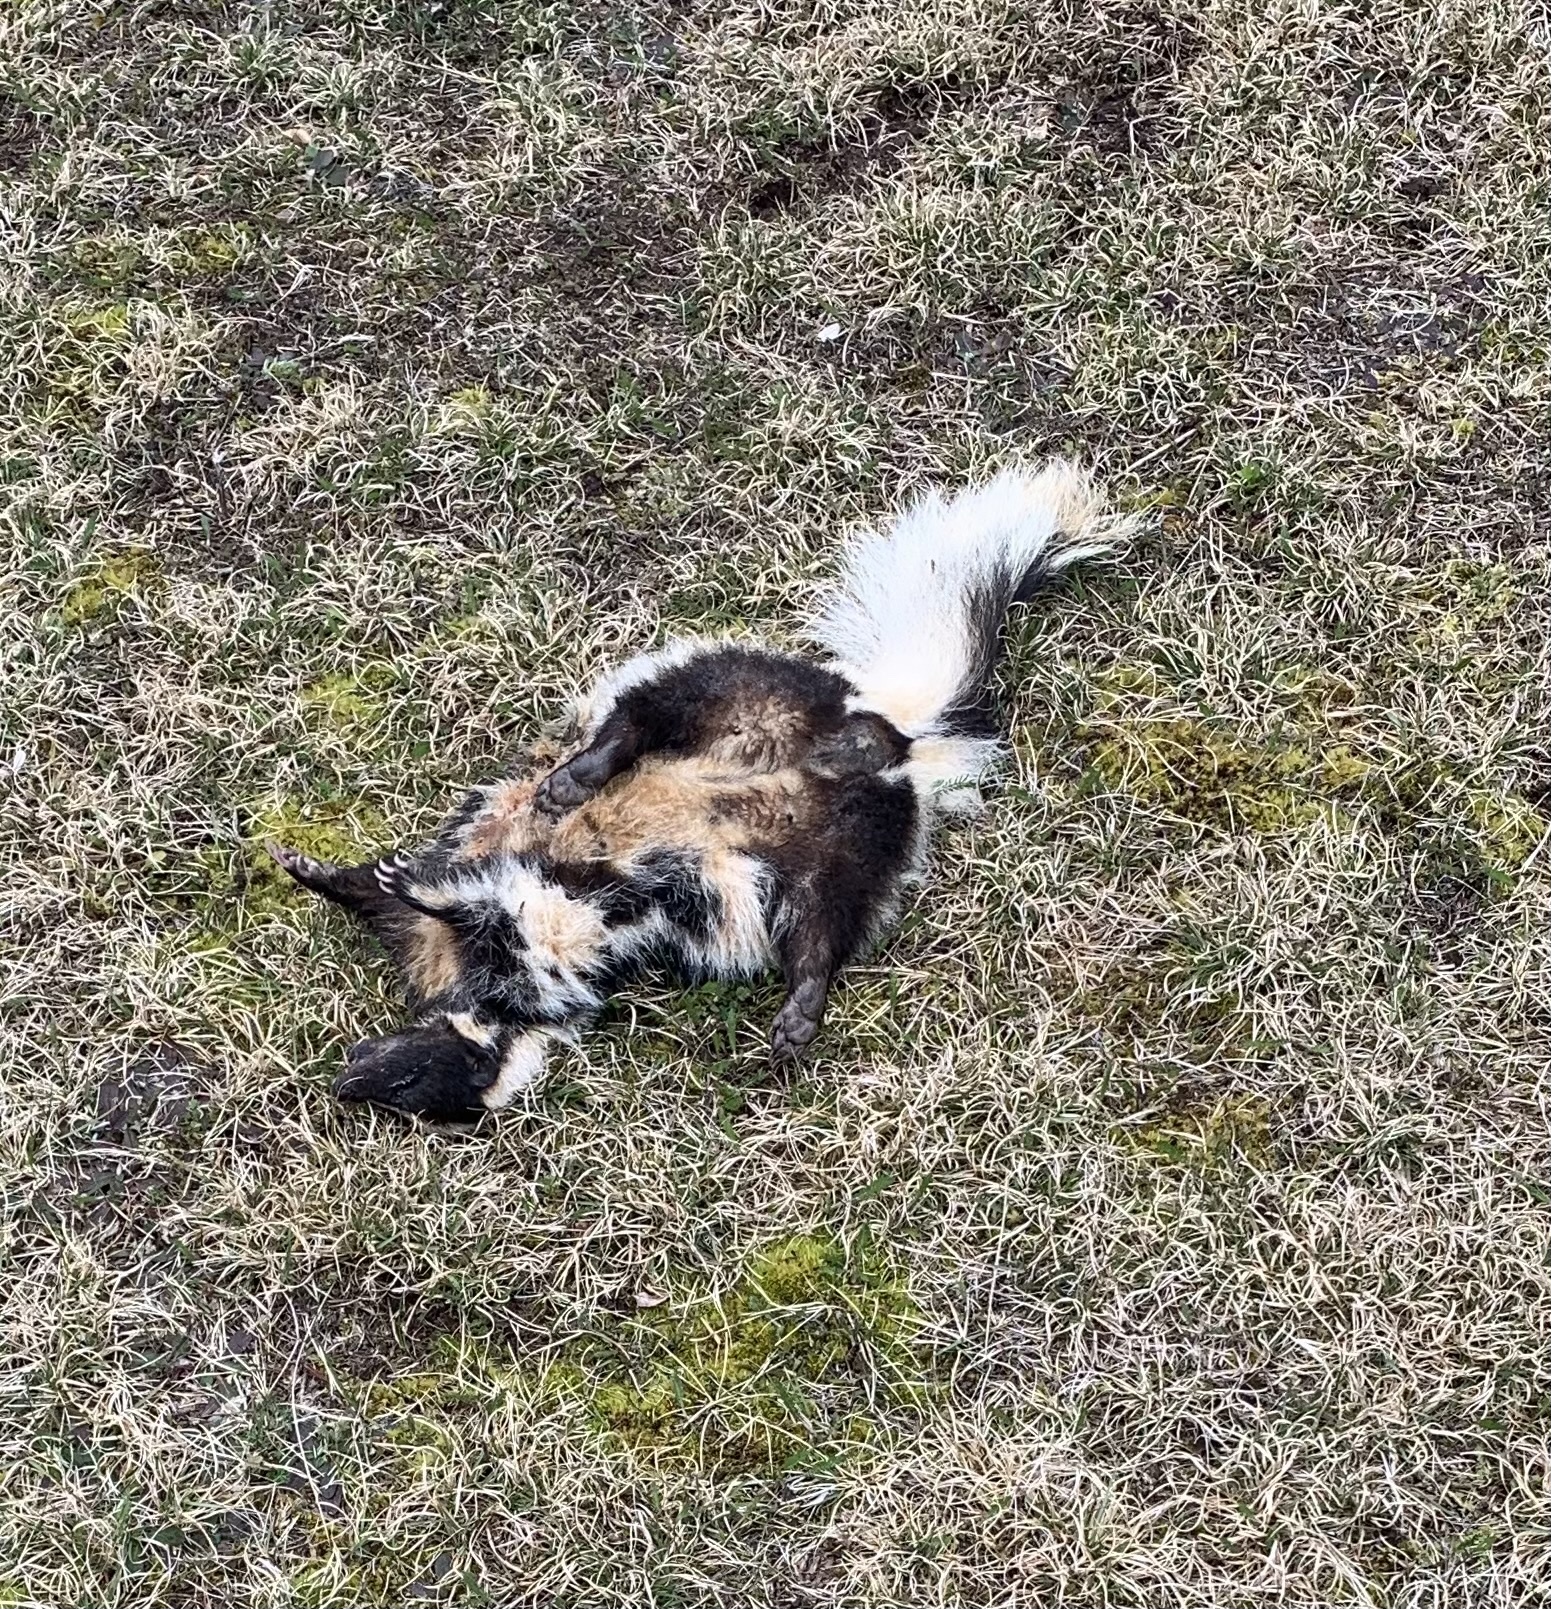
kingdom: Animalia
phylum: Chordata
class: Mammalia
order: Carnivora
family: Mephitidae
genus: Mephitis
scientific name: Mephitis mephitis
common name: Striped skunk
